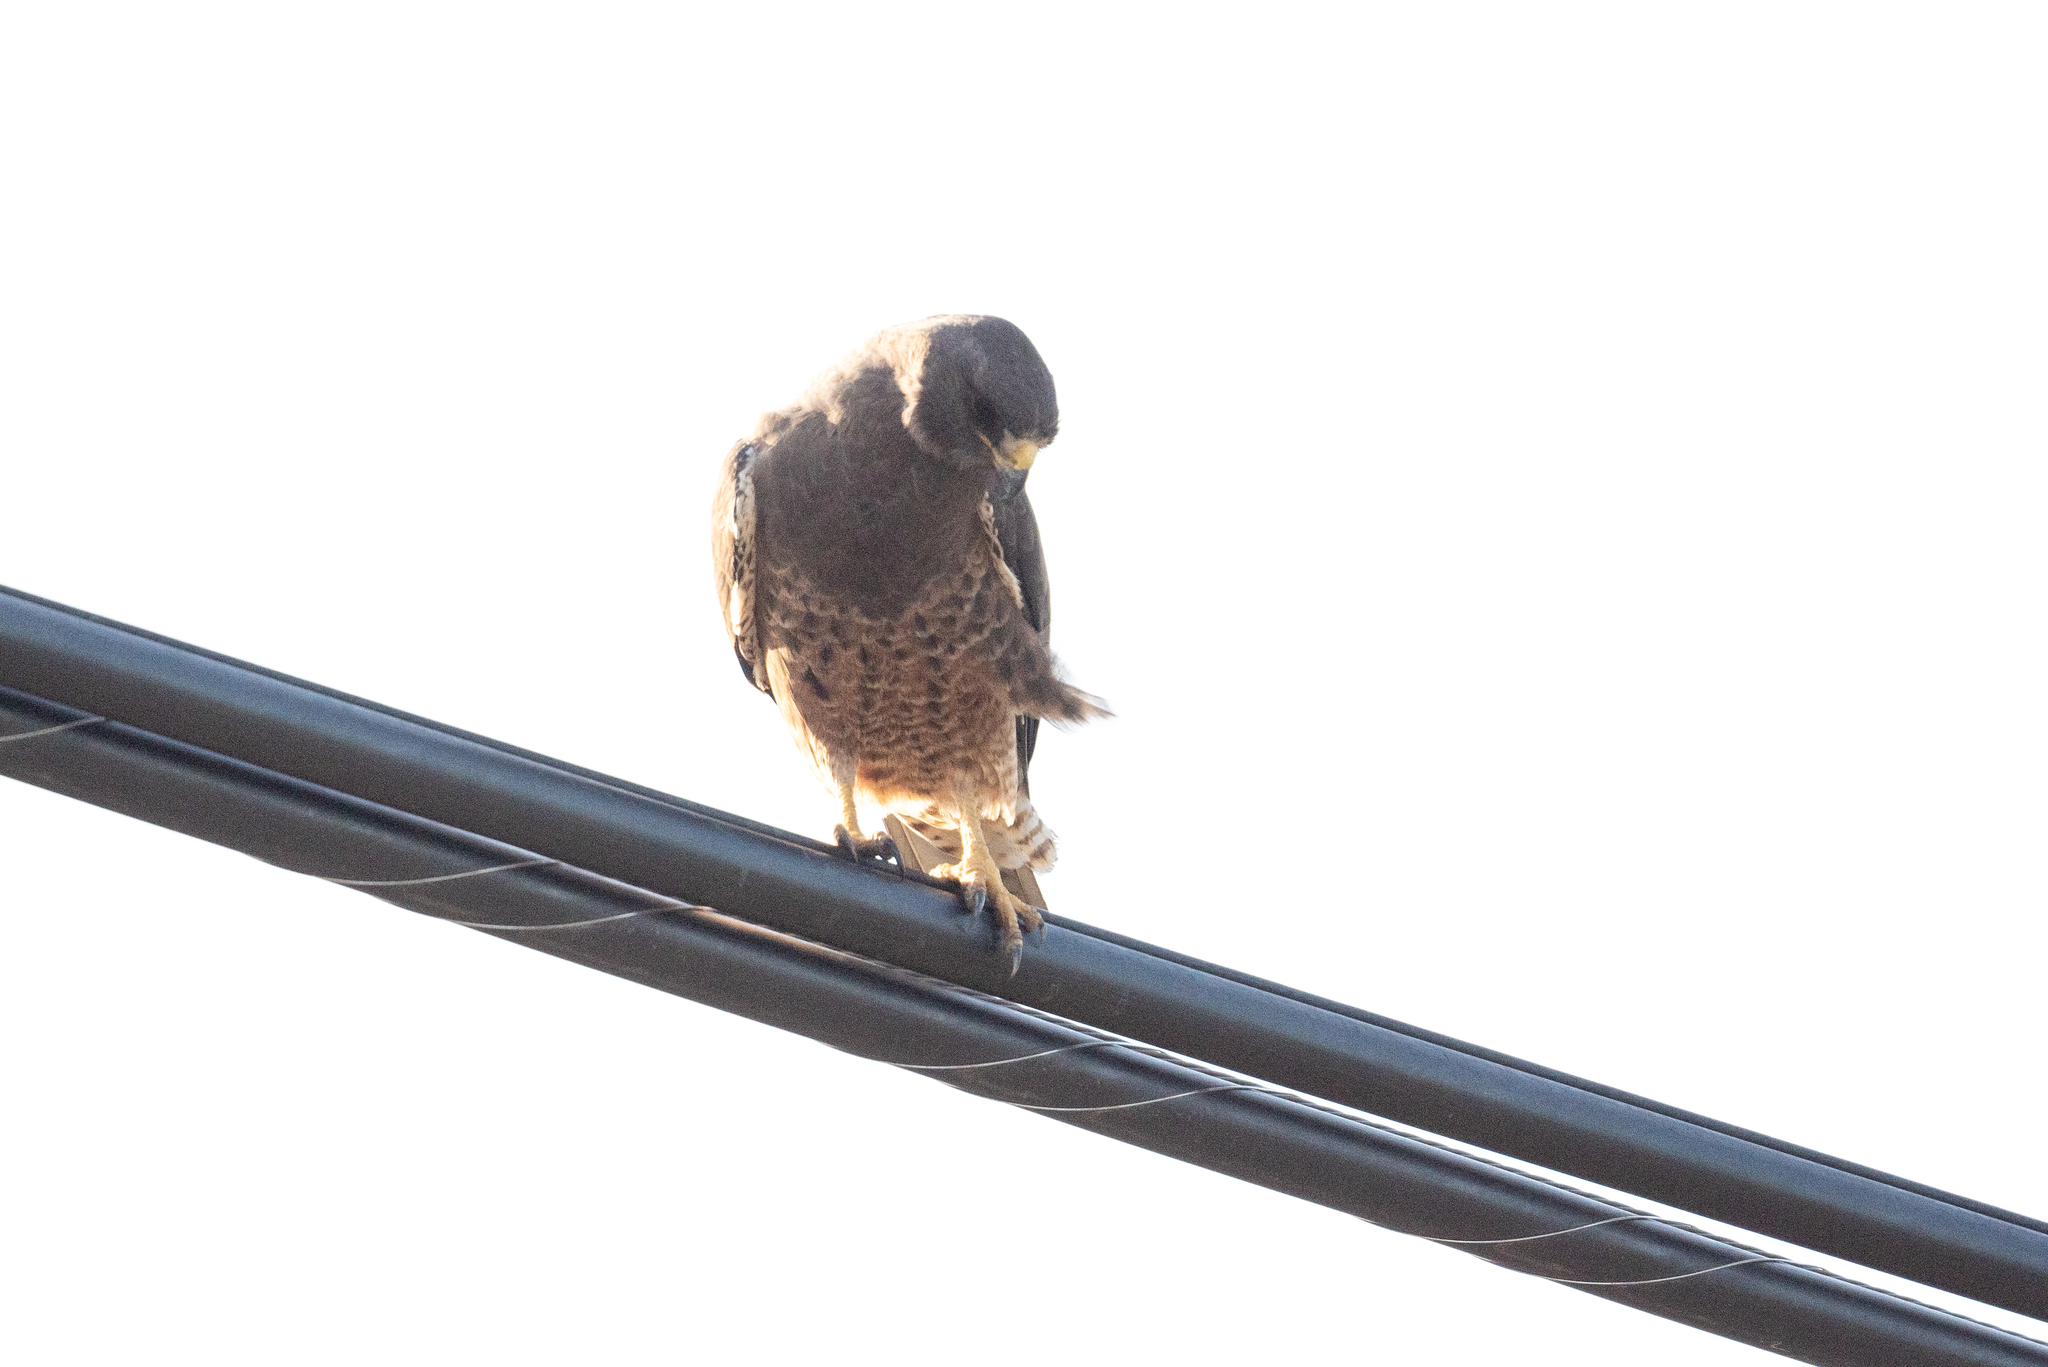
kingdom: Animalia
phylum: Chordata
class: Aves
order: Accipitriformes
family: Accipitridae
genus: Buteo
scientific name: Buteo swainsoni
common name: Swainson's hawk
